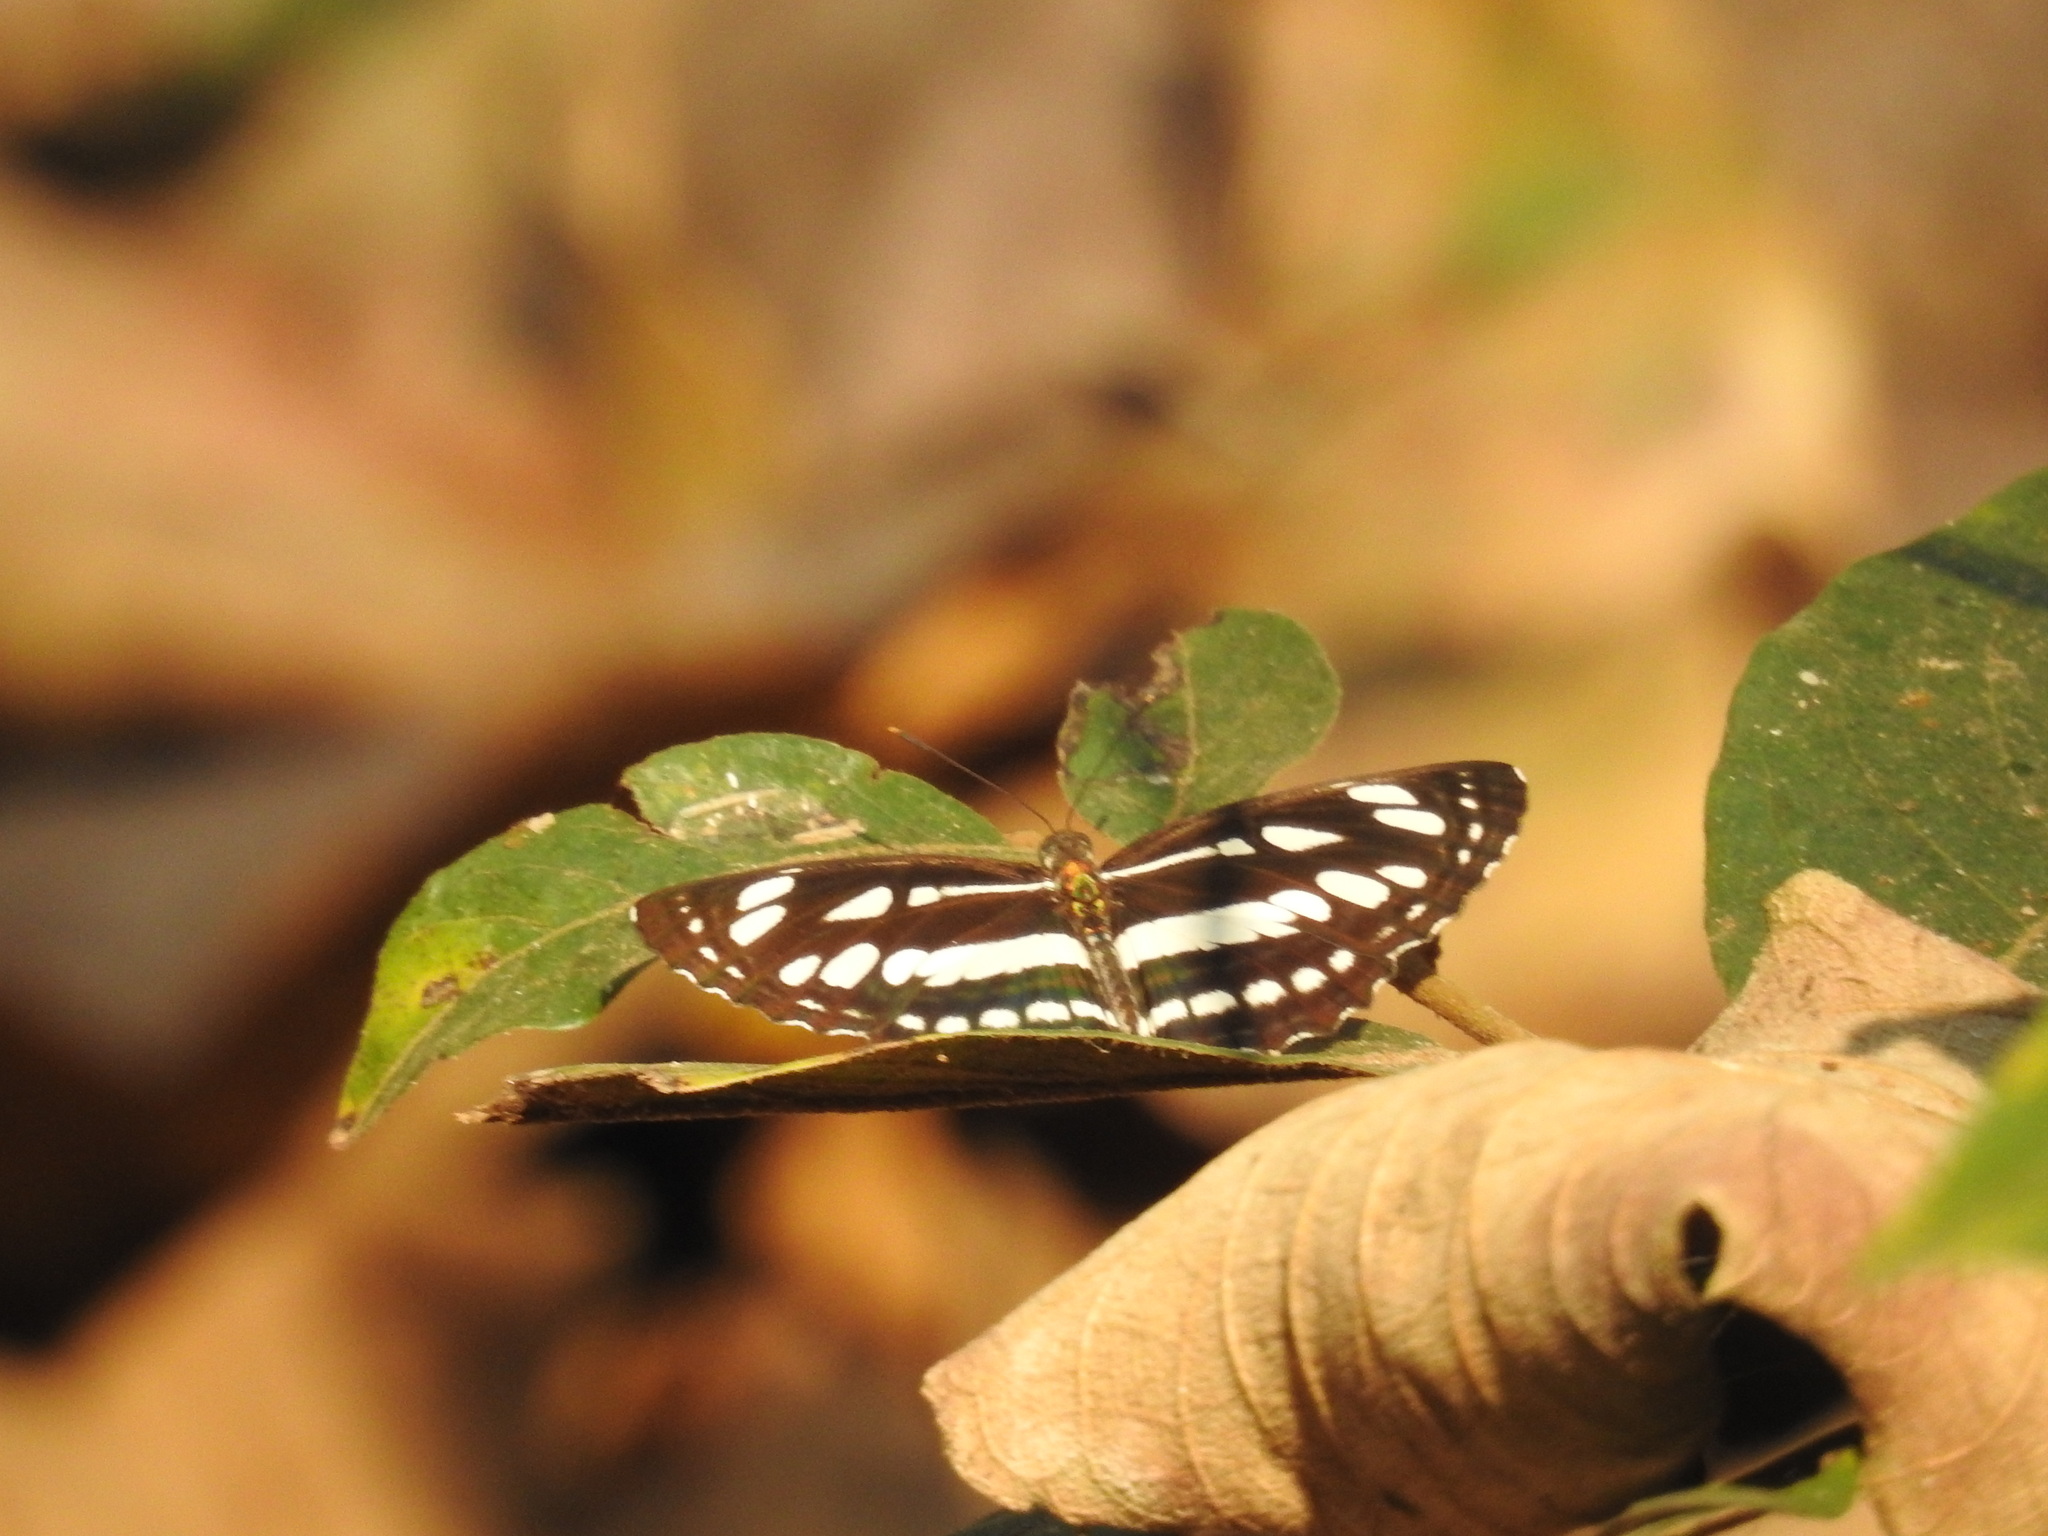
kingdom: Animalia
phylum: Arthropoda
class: Insecta
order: Lepidoptera
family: Nymphalidae
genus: Neptis
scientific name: Neptis hylas
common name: Common sailer
